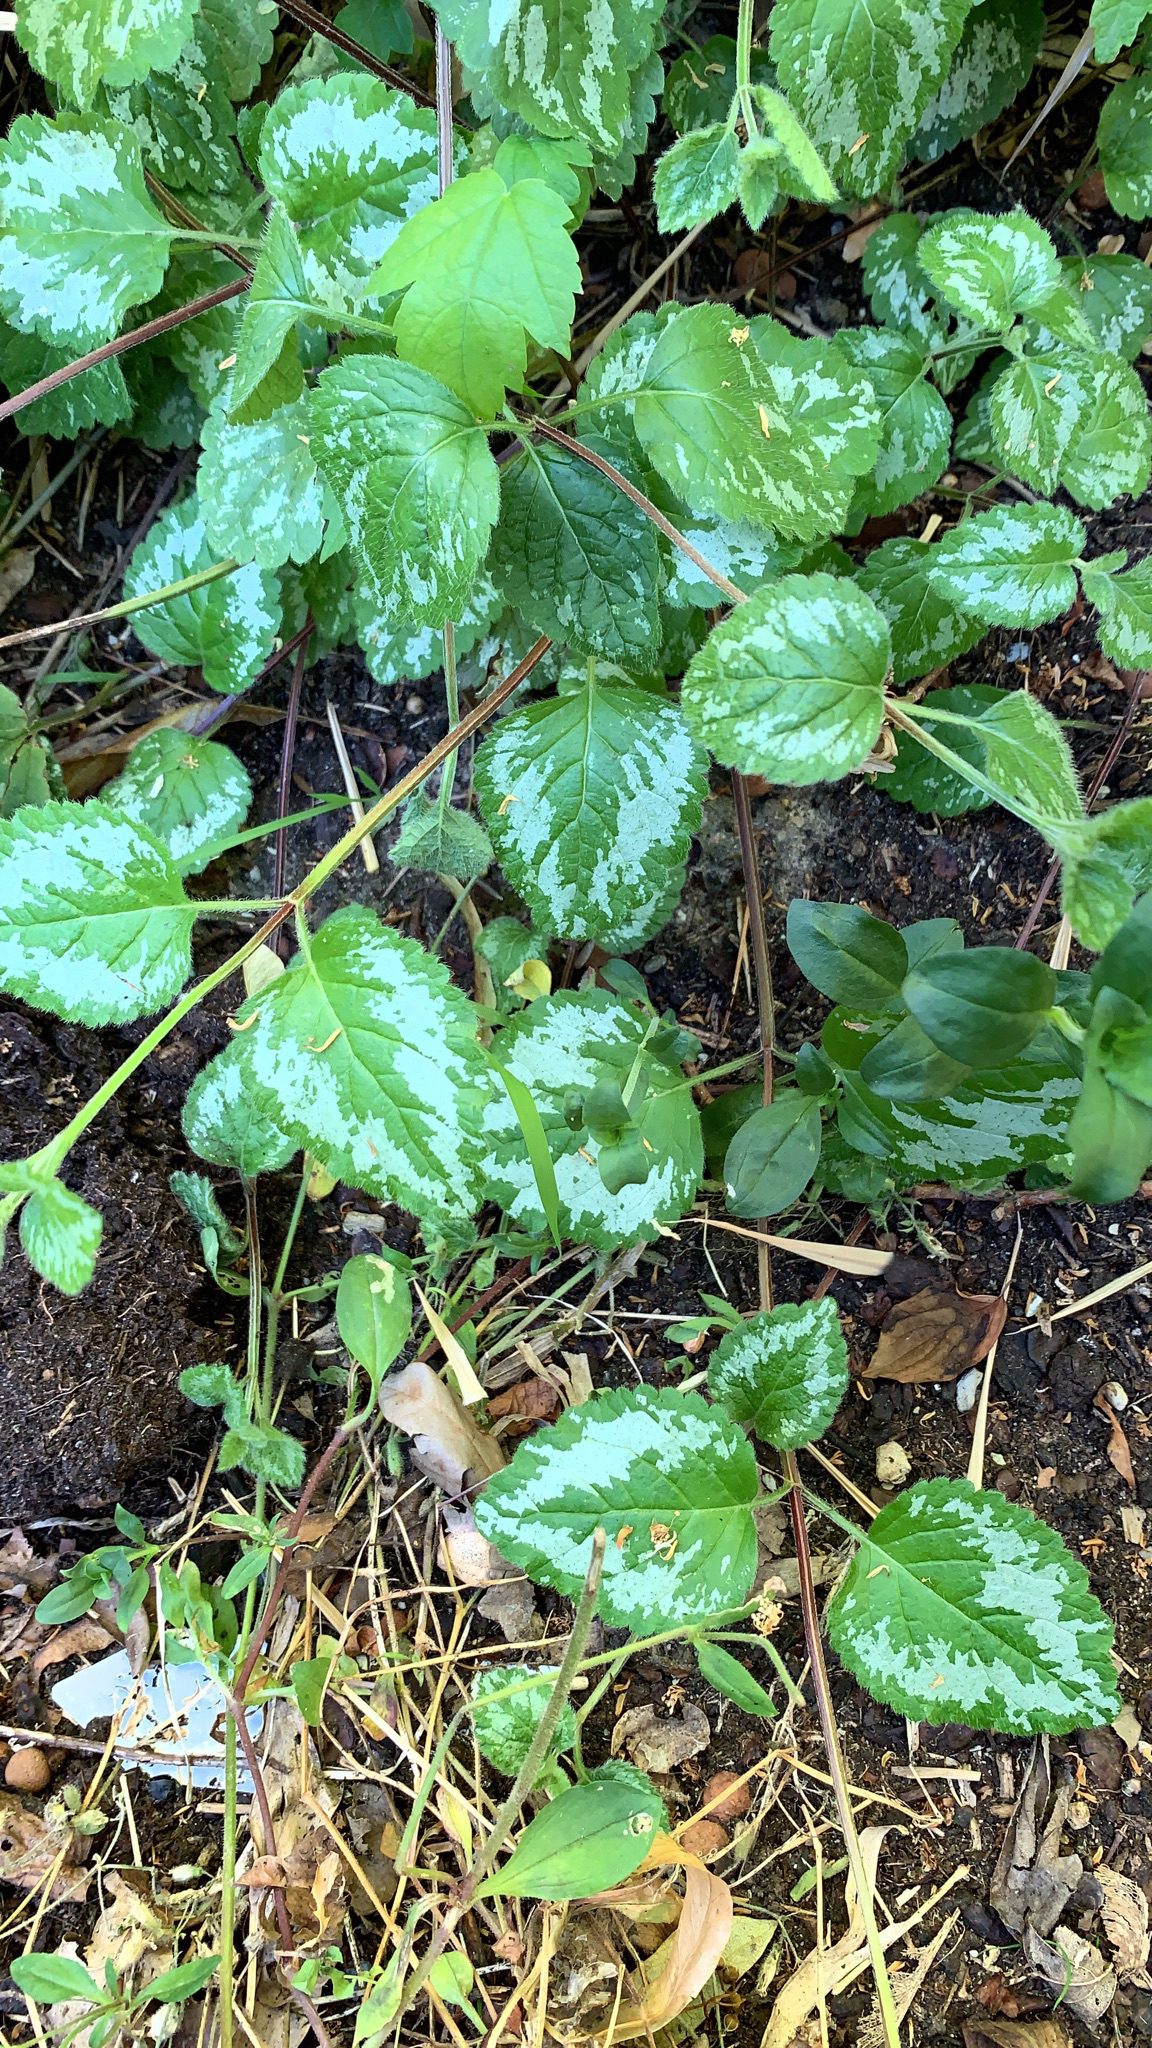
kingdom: Plantae
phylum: Tracheophyta
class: Magnoliopsida
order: Lamiales
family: Lamiaceae
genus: Lamium
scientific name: Lamium galeobdolon
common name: Yellow archangel
